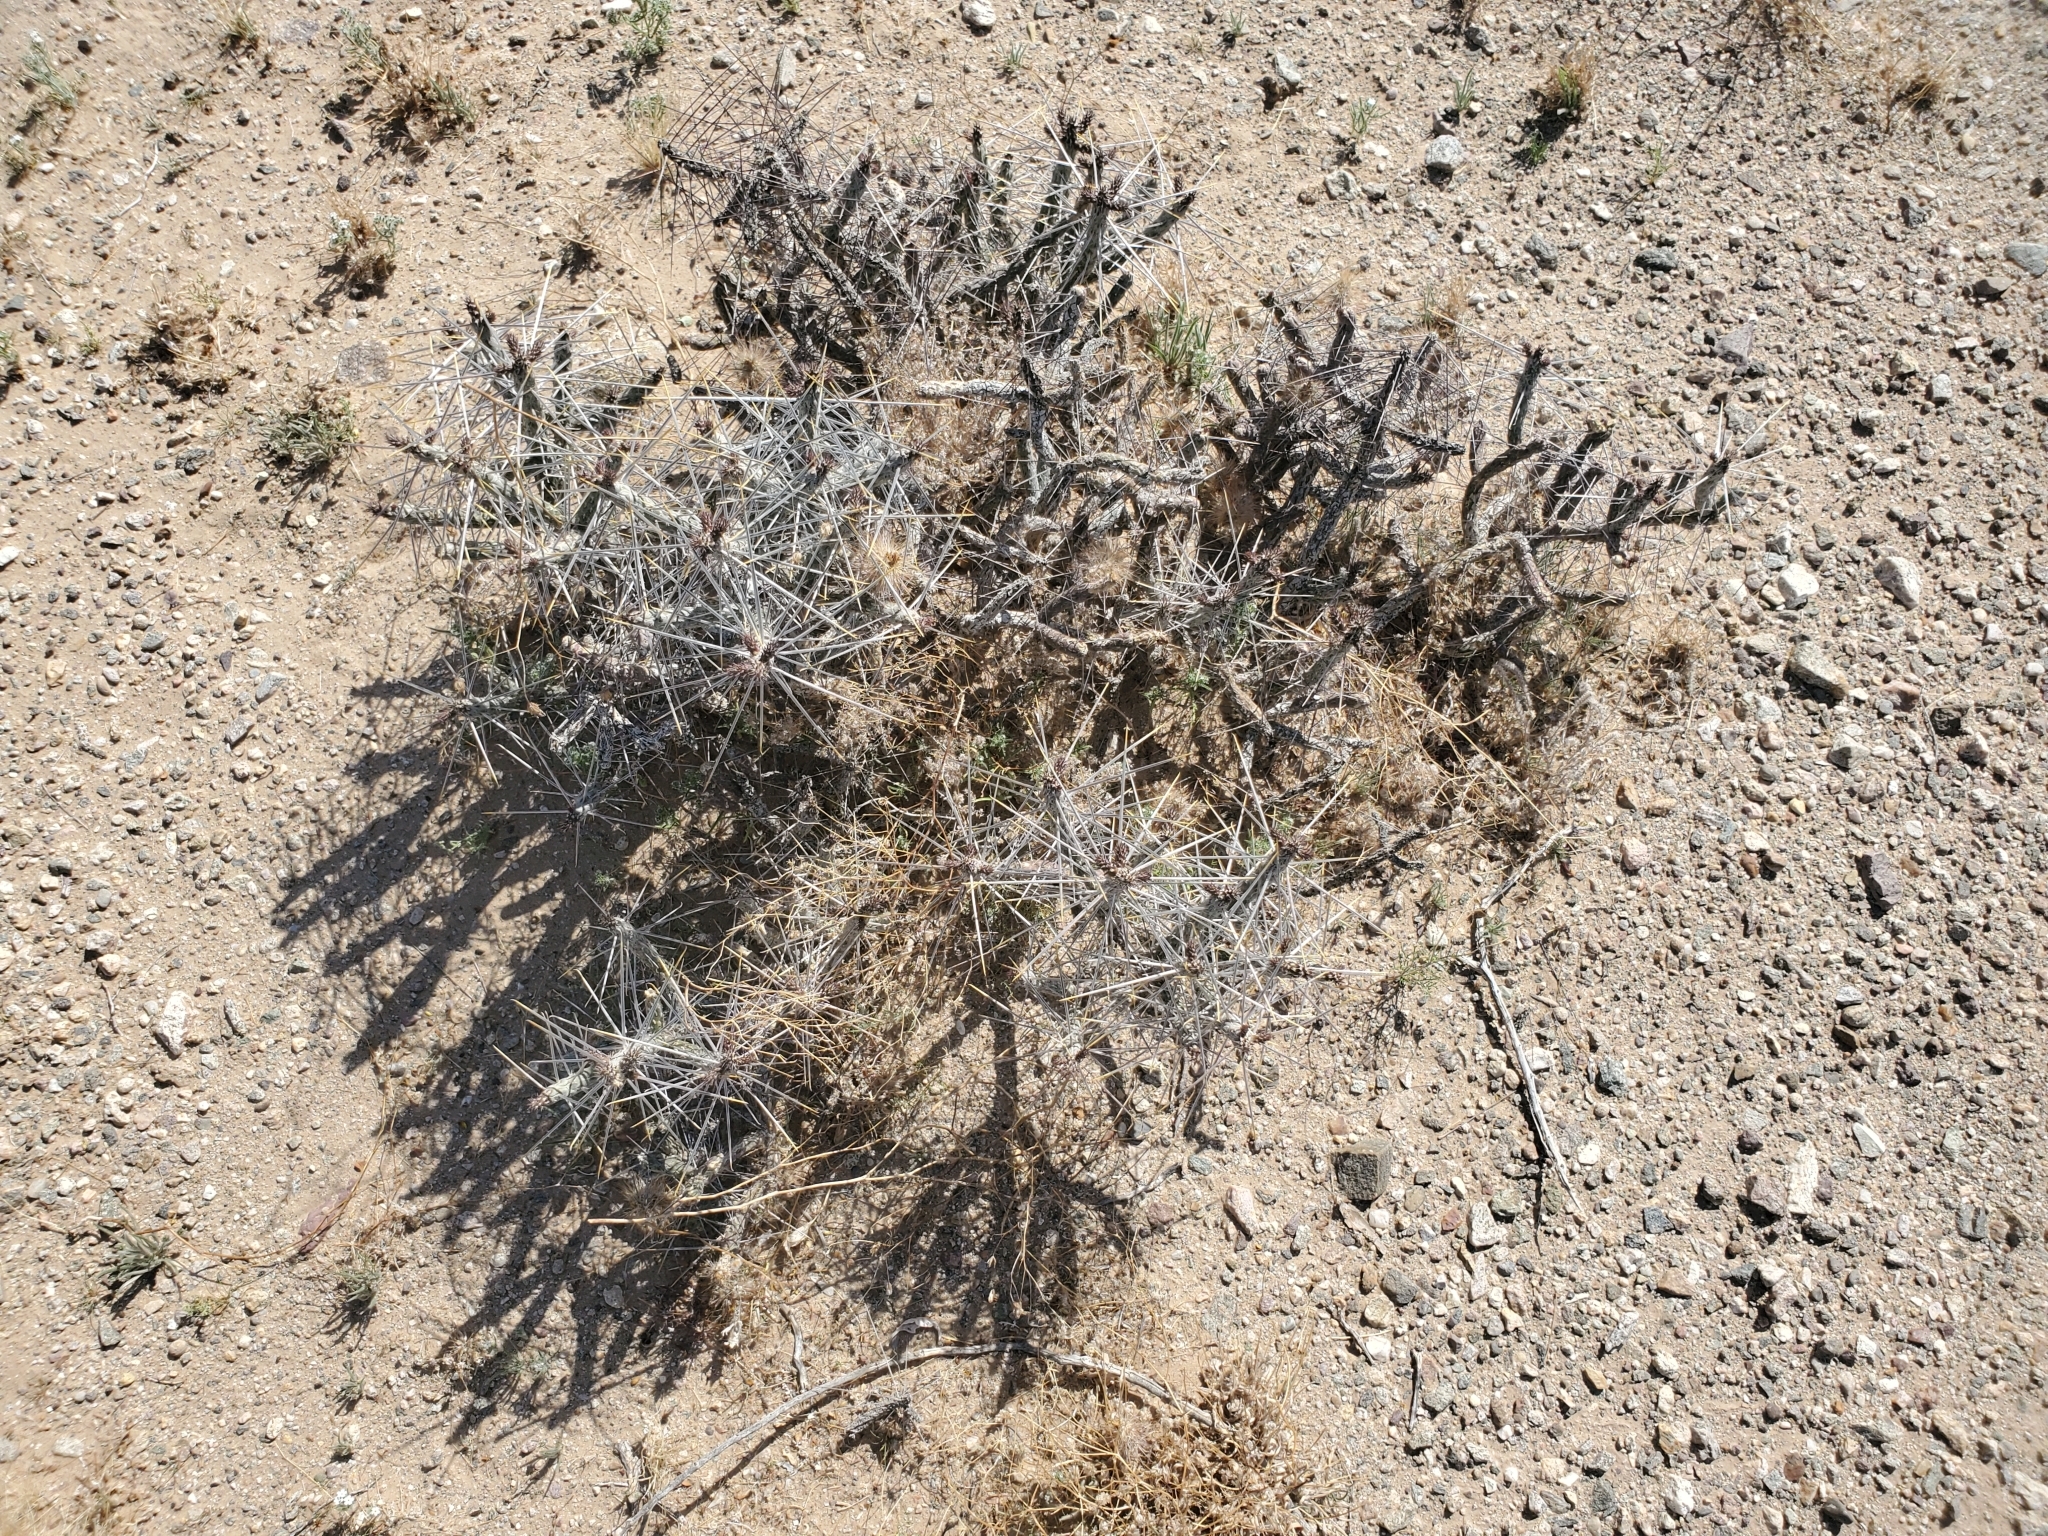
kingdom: Plantae
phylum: Tracheophyta
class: Magnoliopsida
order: Caryophyllales
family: Cactaceae
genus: Cylindropuntia
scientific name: Cylindropuntia ramosissima
